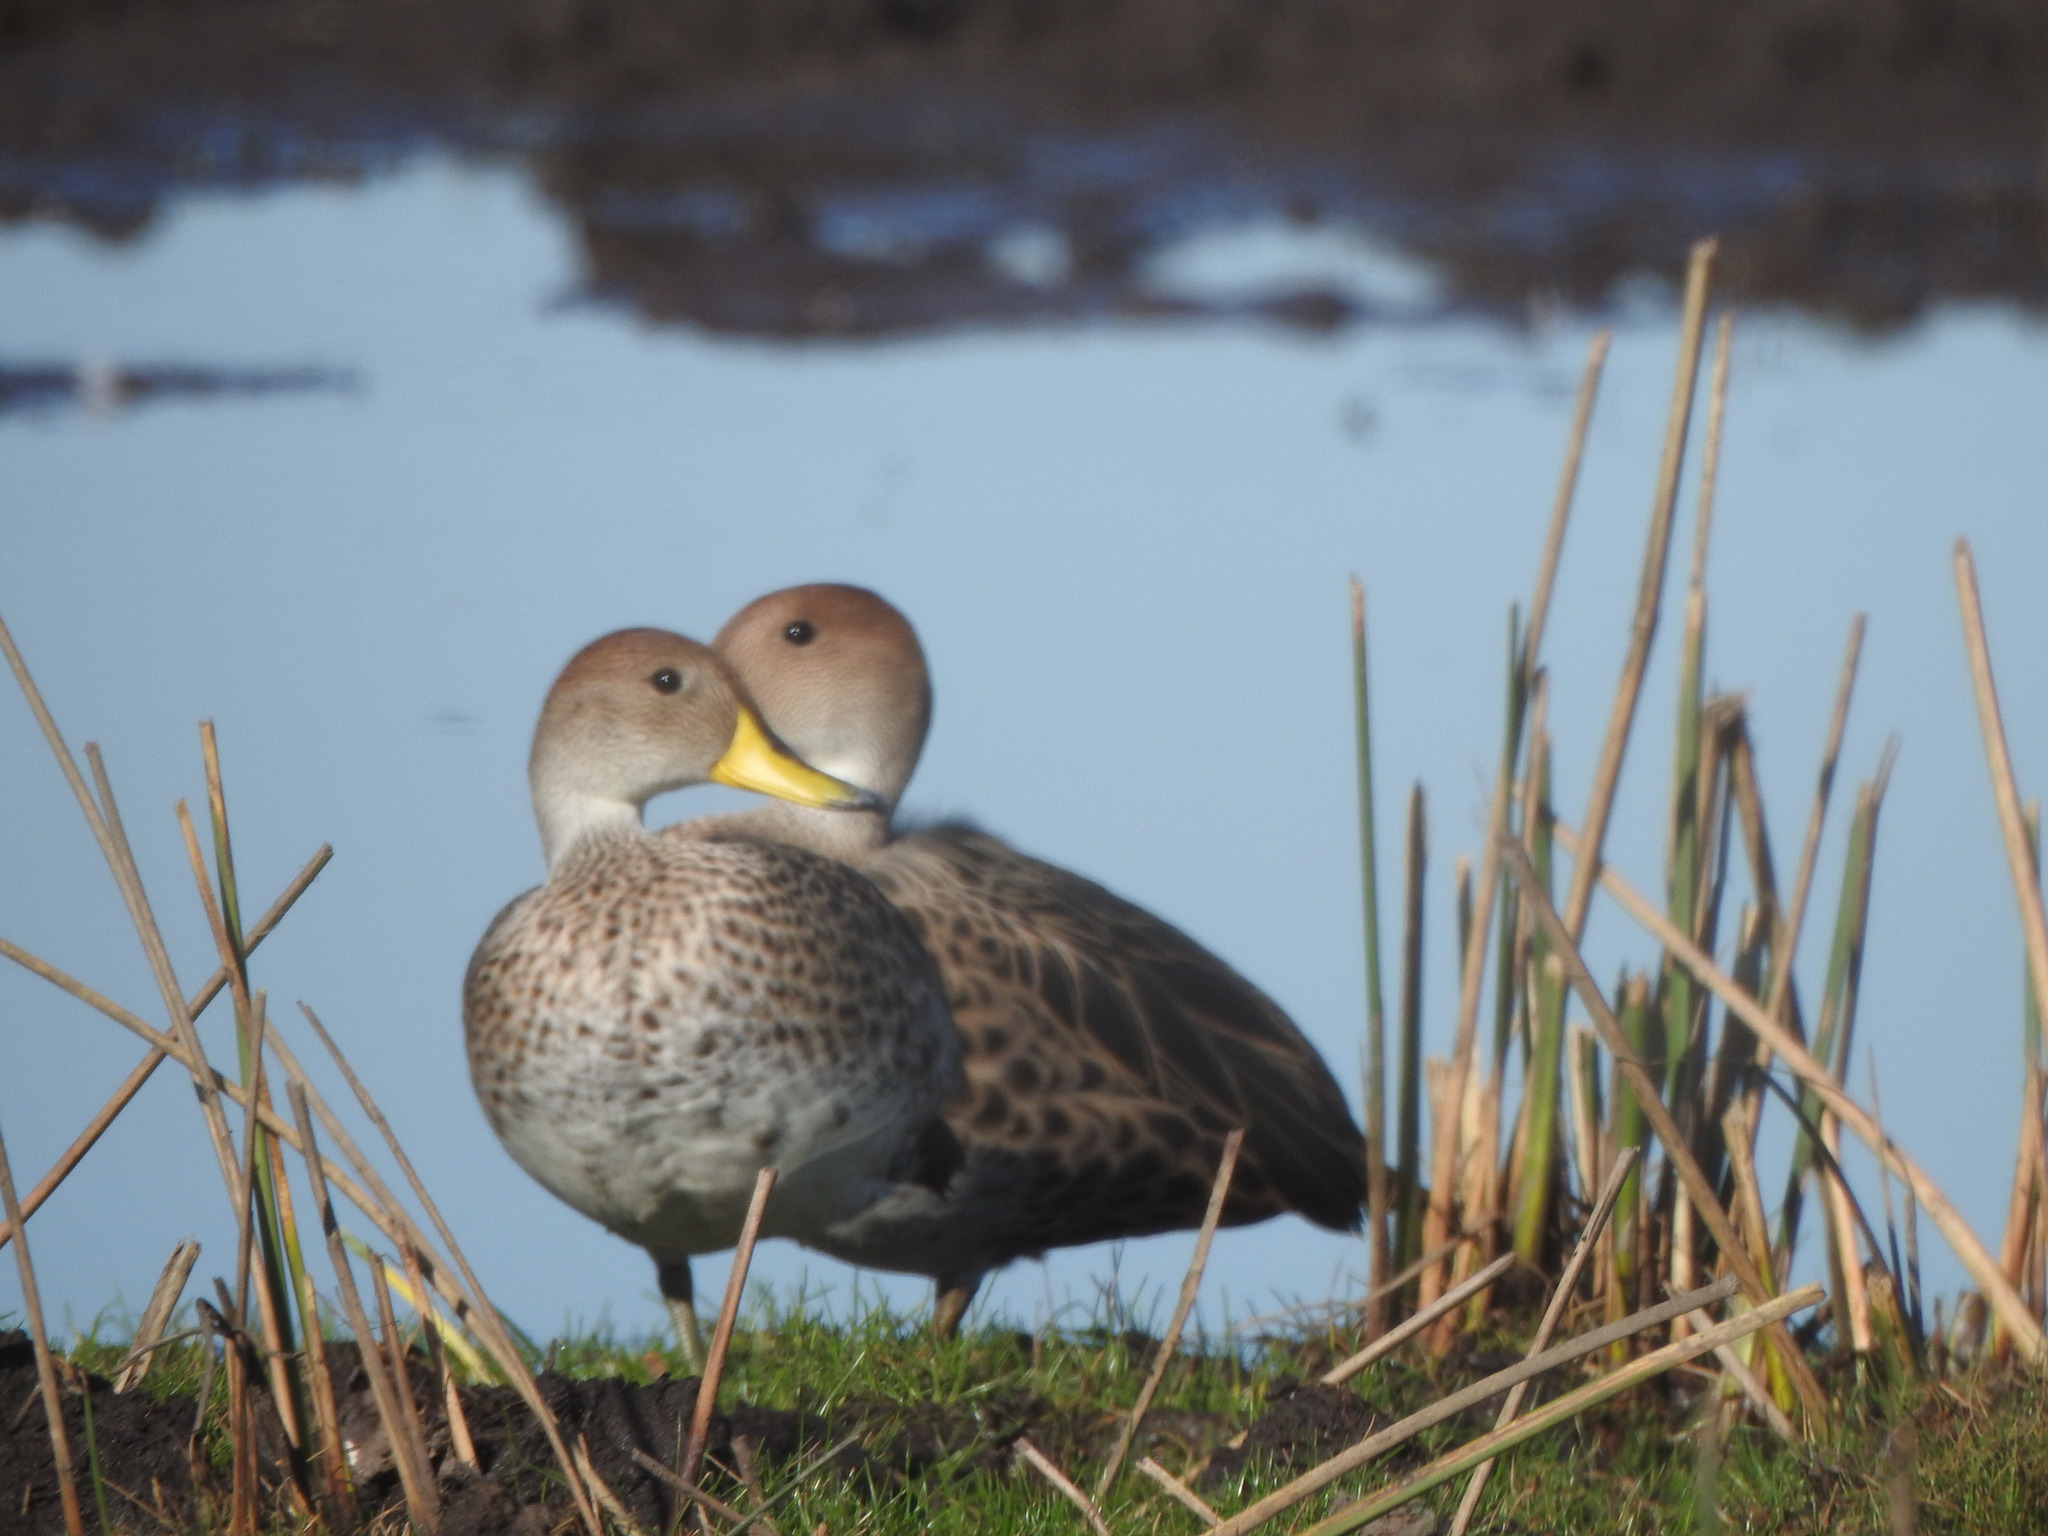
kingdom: Animalia
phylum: Chordata
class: Aves
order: Anseriformes
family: Anatidae
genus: Anas
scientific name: Anas georgica
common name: Yellow-billed pintail
